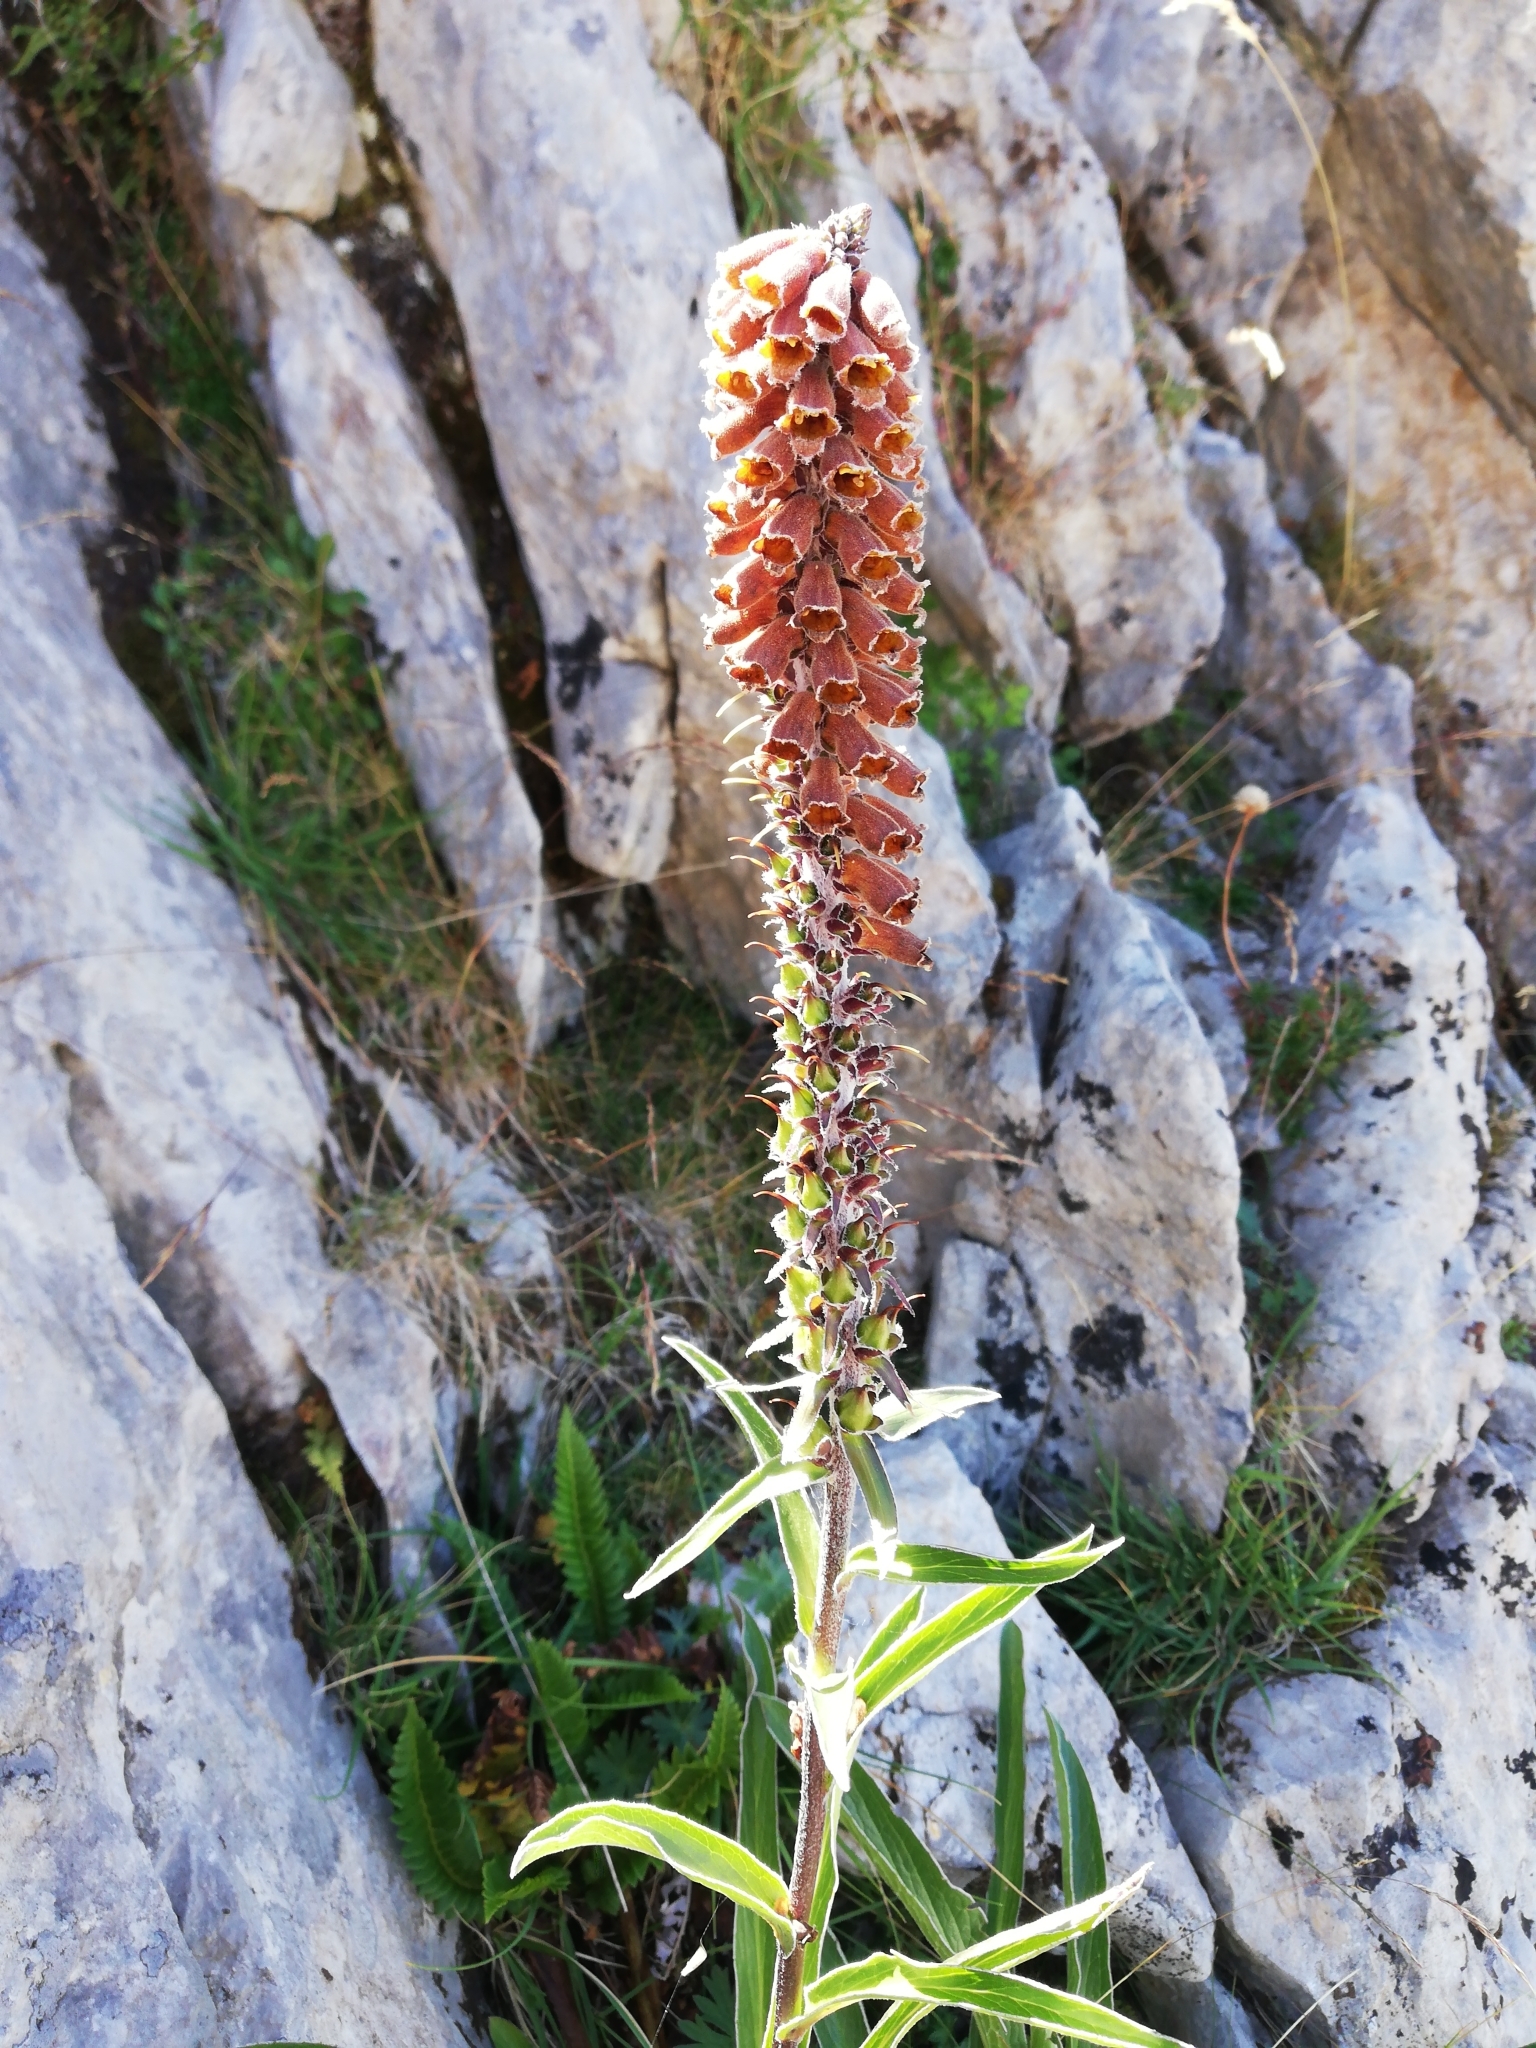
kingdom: Plantae
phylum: Tracheophyta
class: Magnoliopsida
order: Lamiales
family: Plantaginaceae
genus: Digitalis
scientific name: Digitalis parviflora
